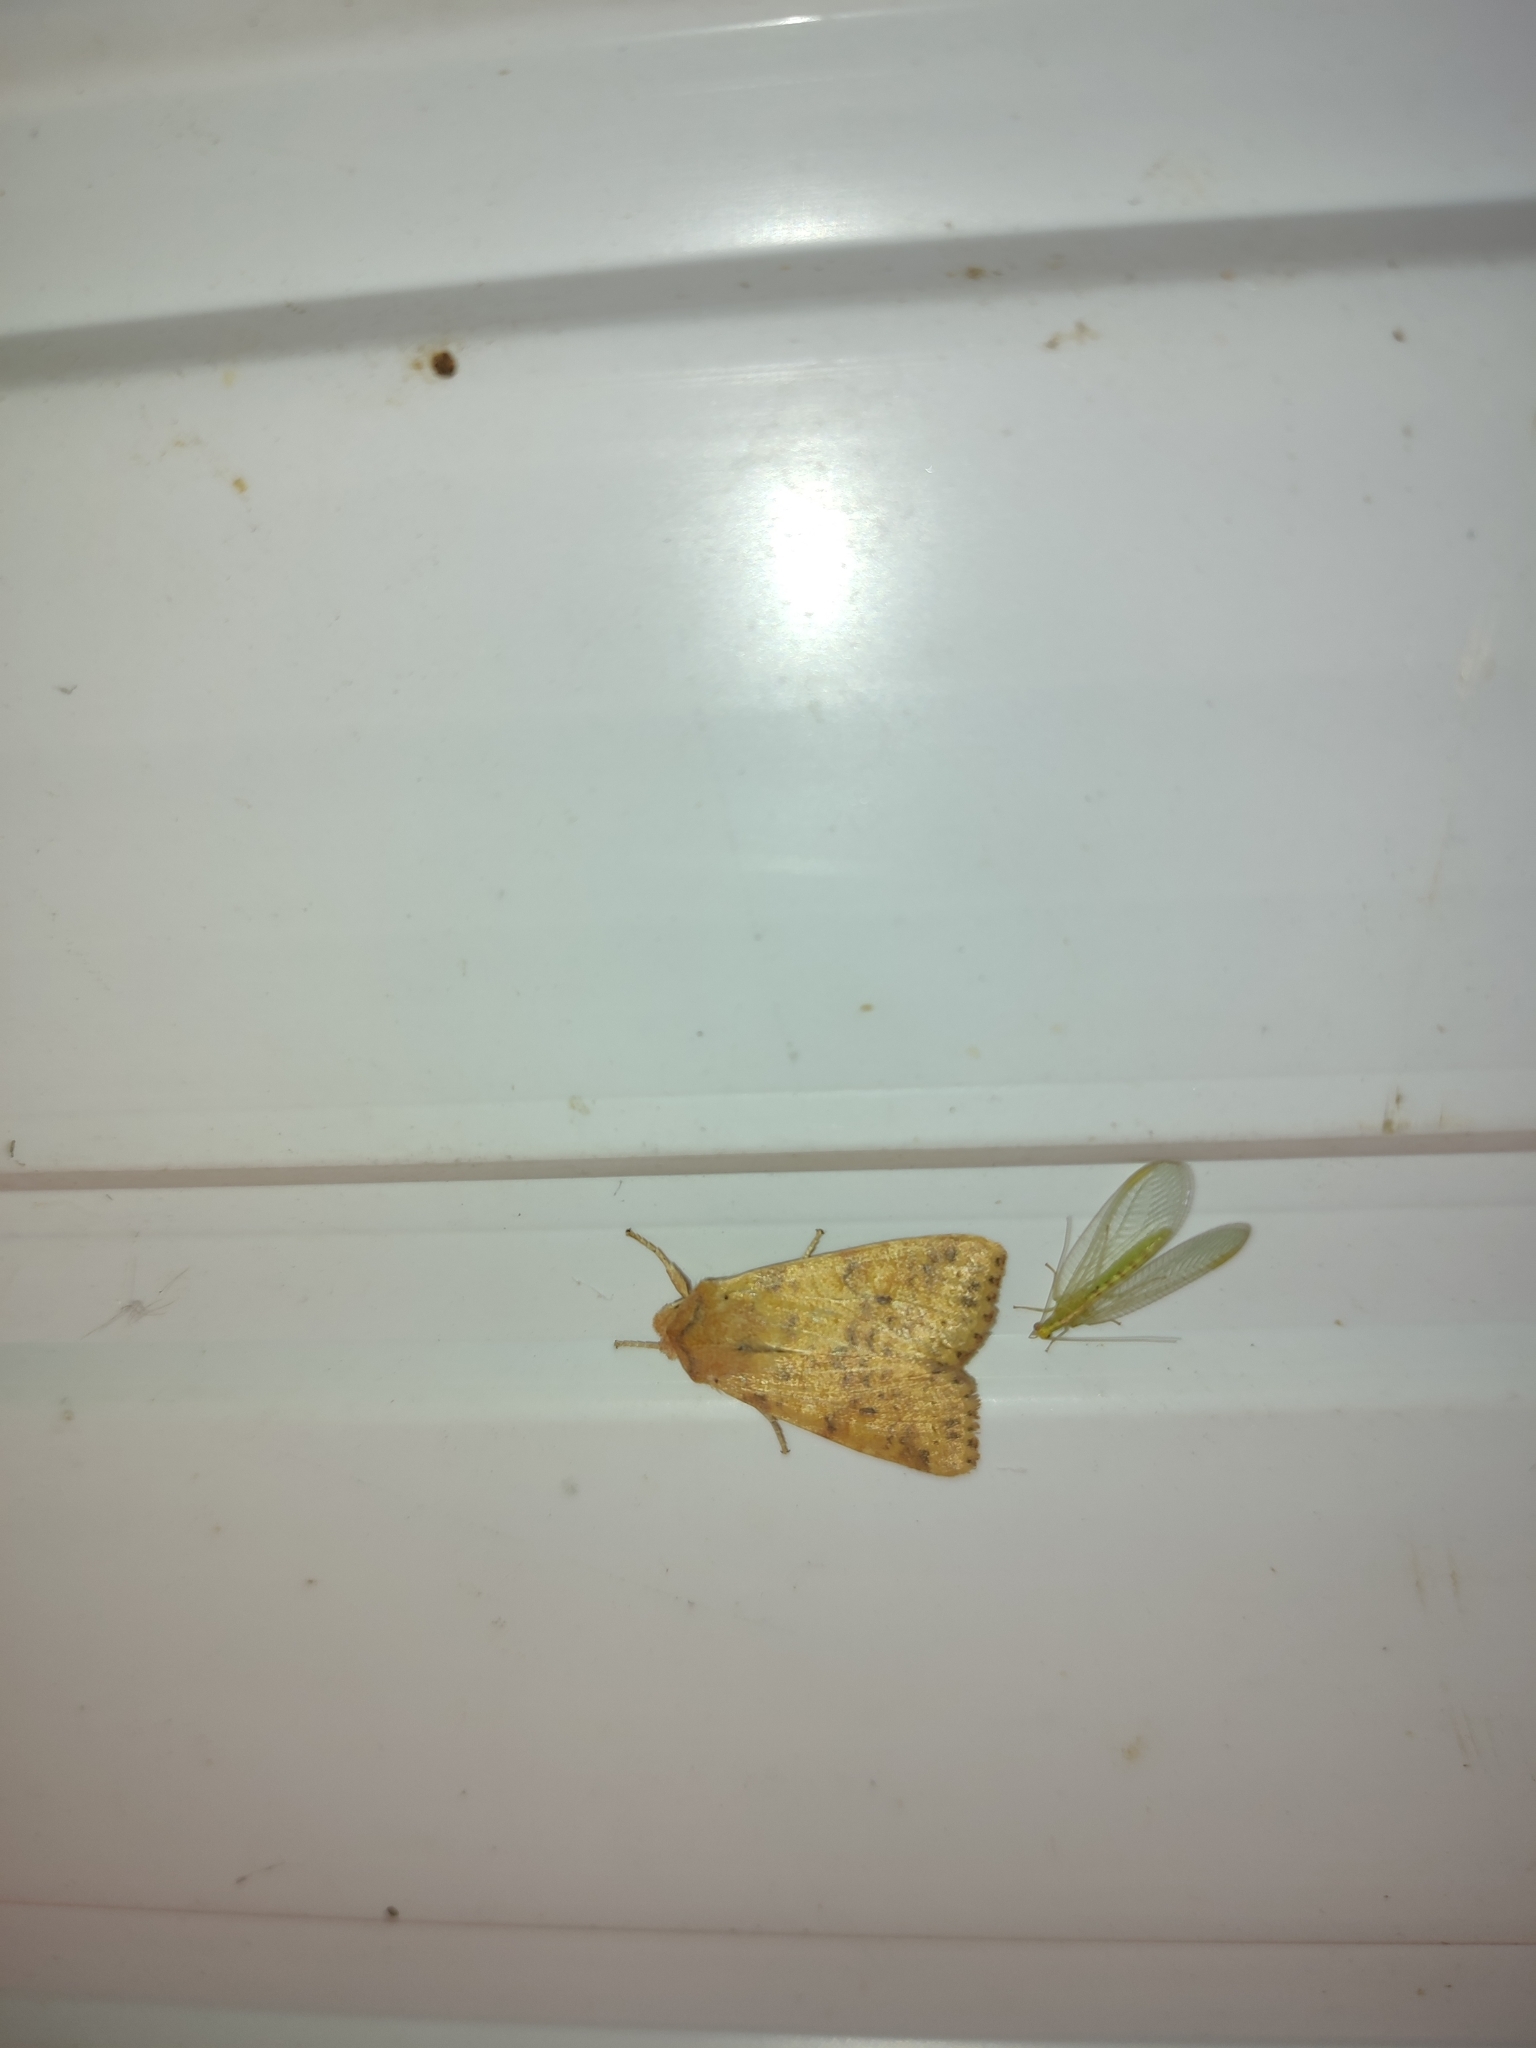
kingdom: Animalia
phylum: Arthropoda
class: Insecta
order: Lepidoptera
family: Noctuidae
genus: Xanthia
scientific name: Xanthia gilvago
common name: Dusky-lemon sallow
